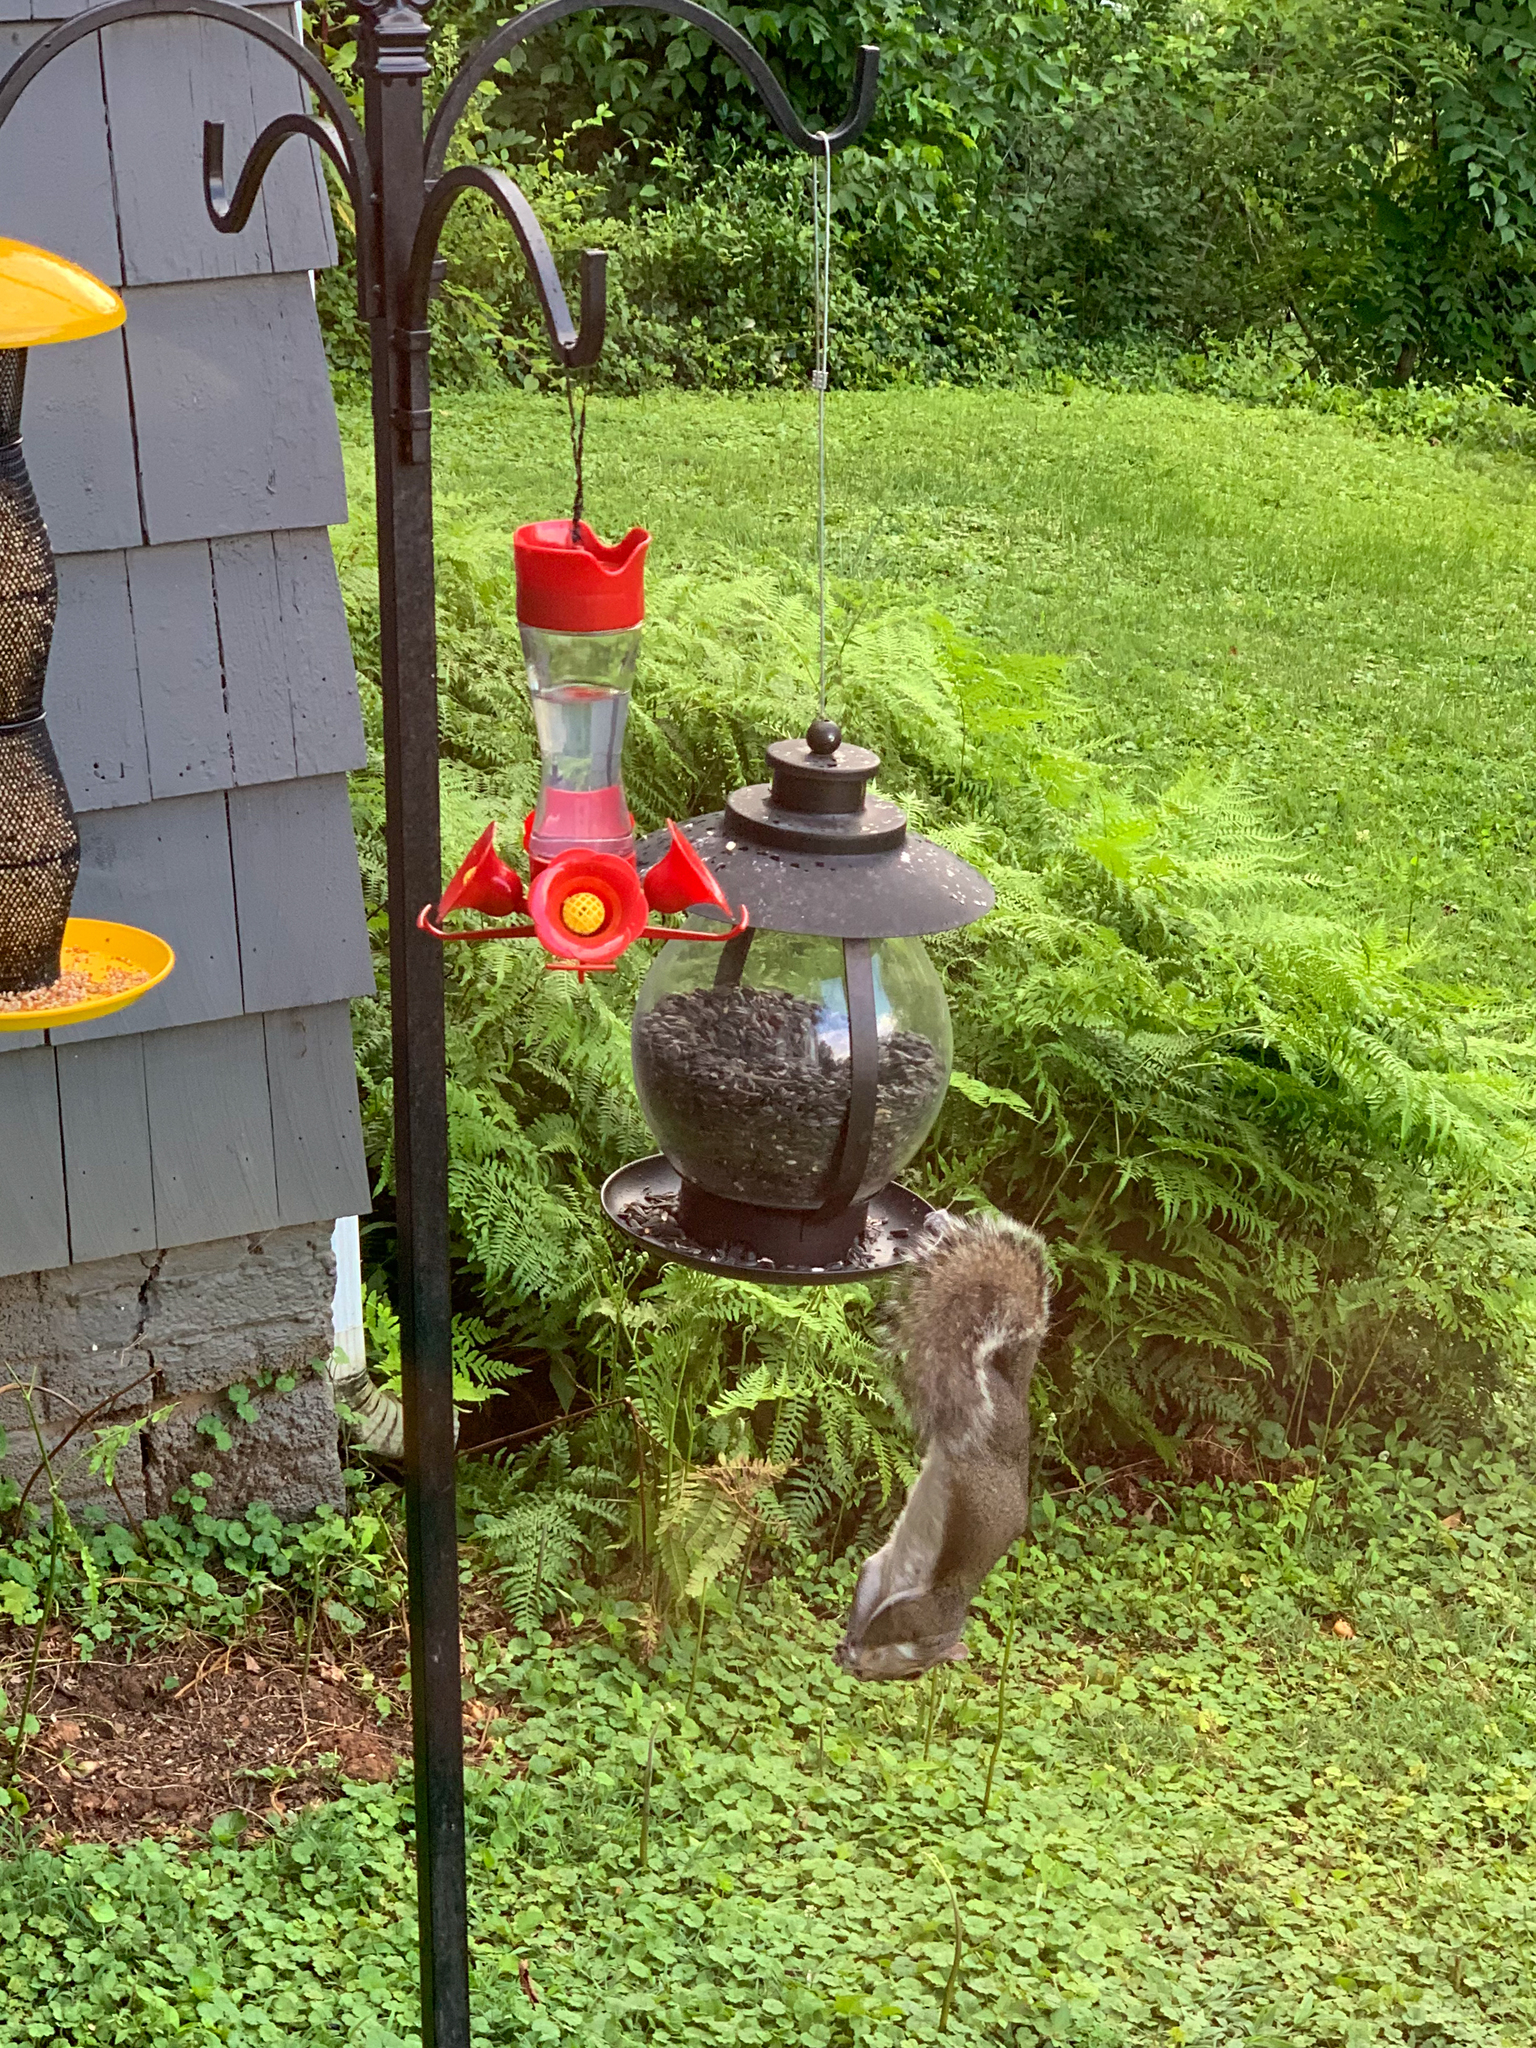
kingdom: Animalia
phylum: Chordata
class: Mammalia
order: Rodentia
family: Sciuridae
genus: Sciurus
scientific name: Sciurus carolinensis
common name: Eastern gray squirrel
